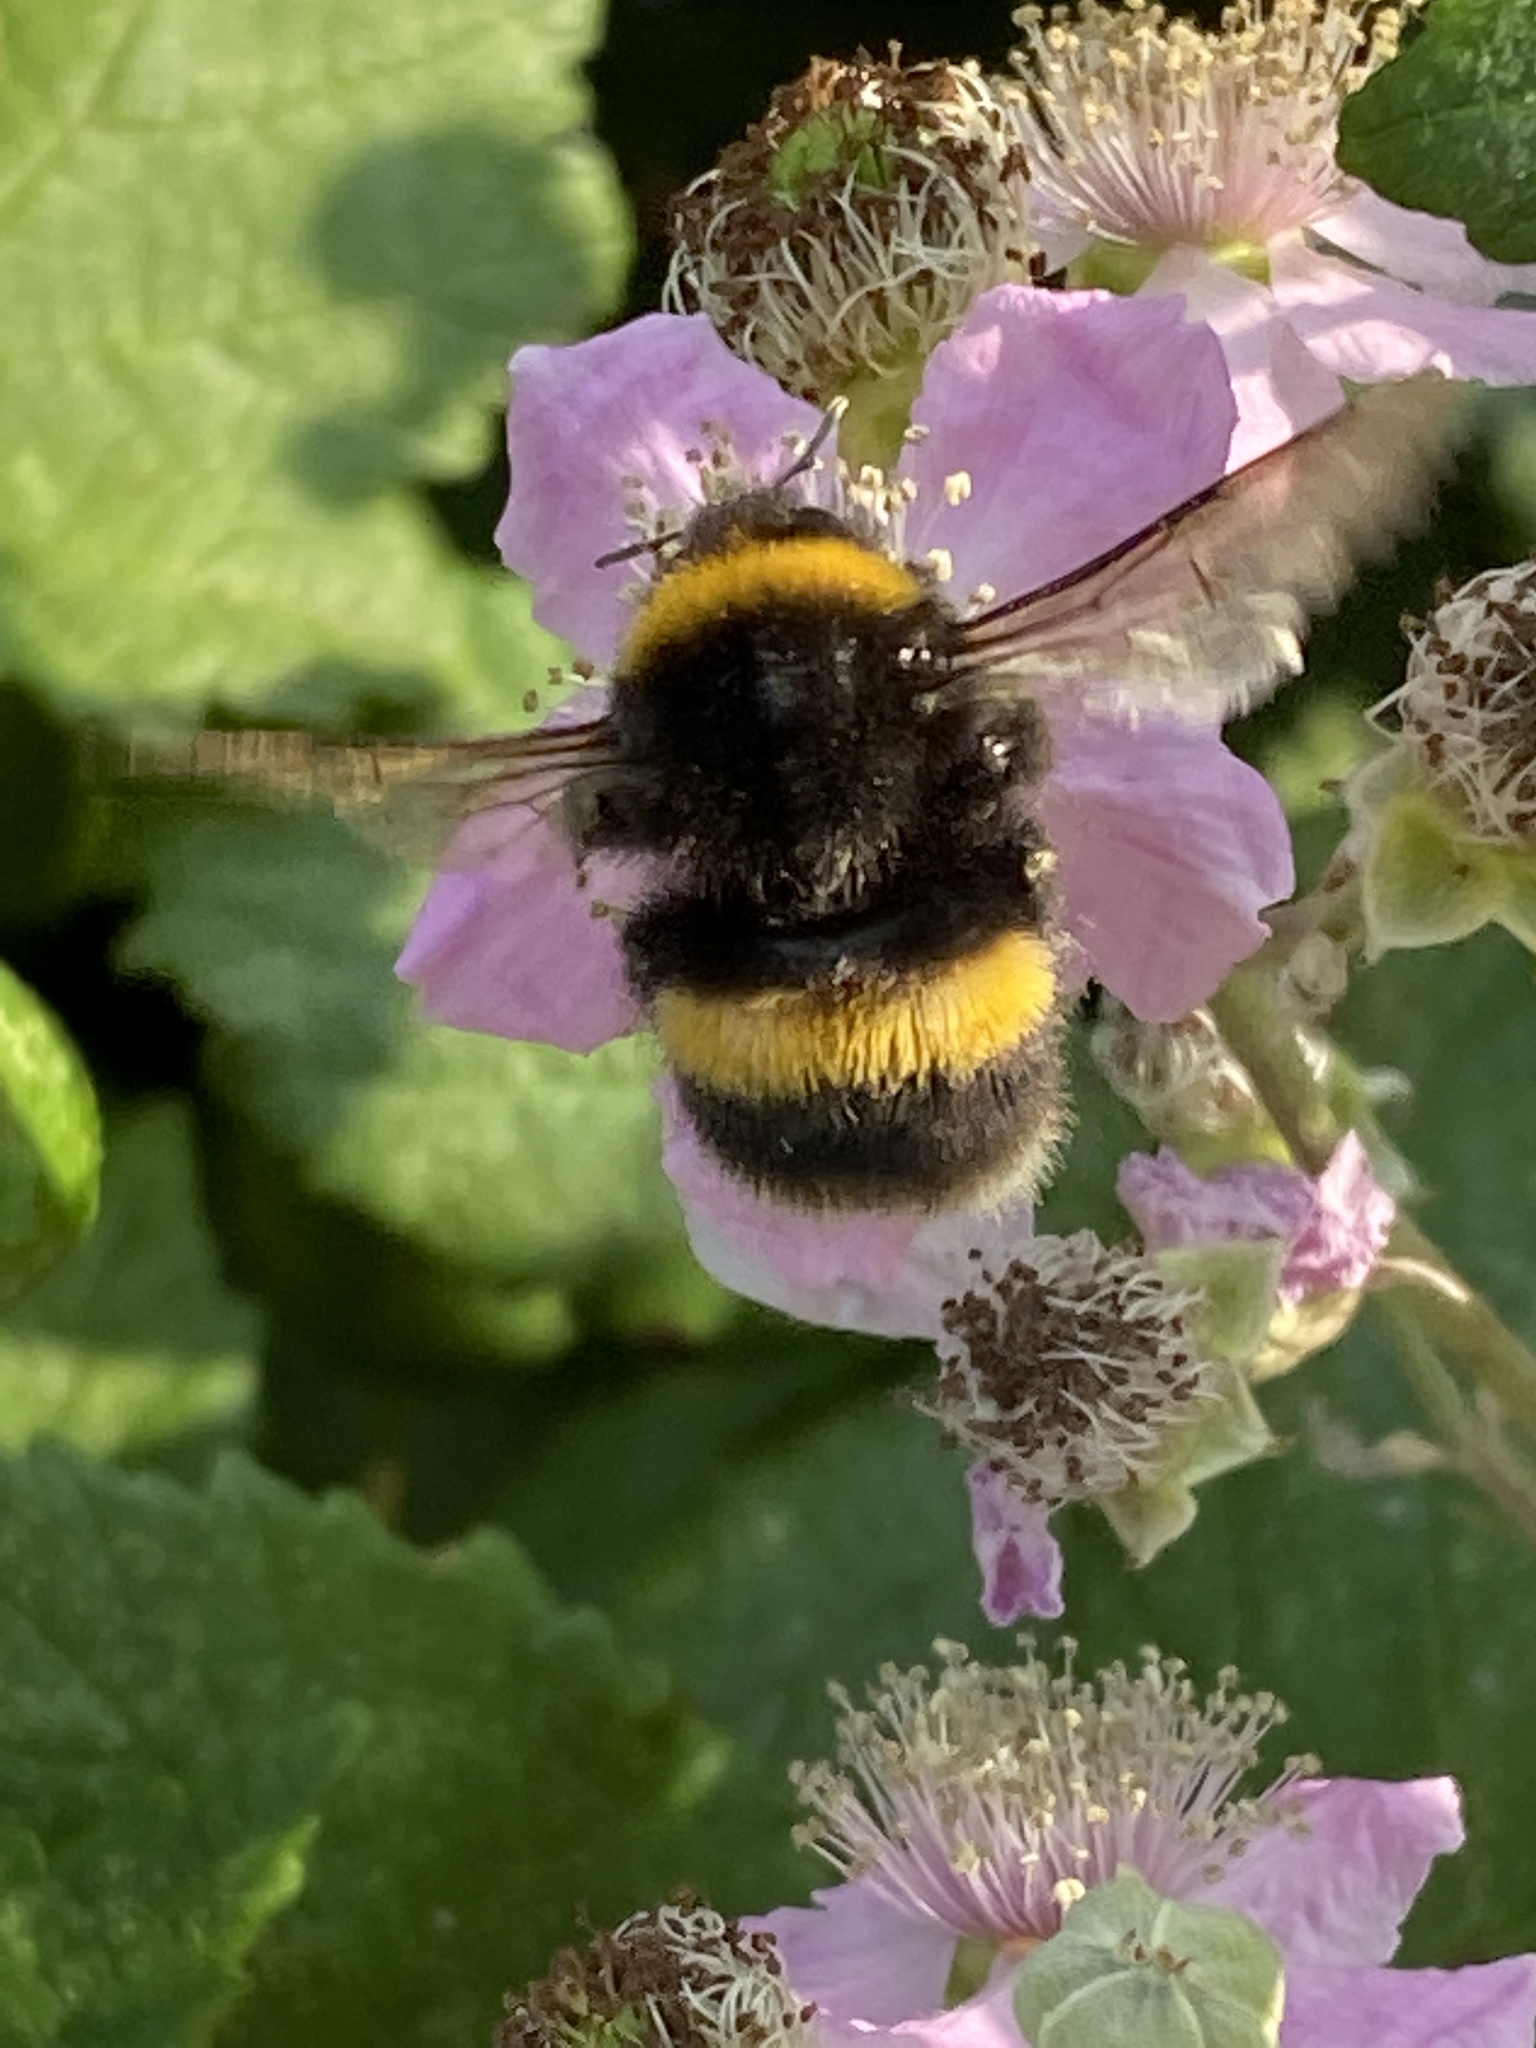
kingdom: Animalia
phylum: Arthropoda
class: Insecta
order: Hymenoptera
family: Apidae
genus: Bombus
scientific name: Bombus terrestris
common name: Buff-tailed bumblebee
